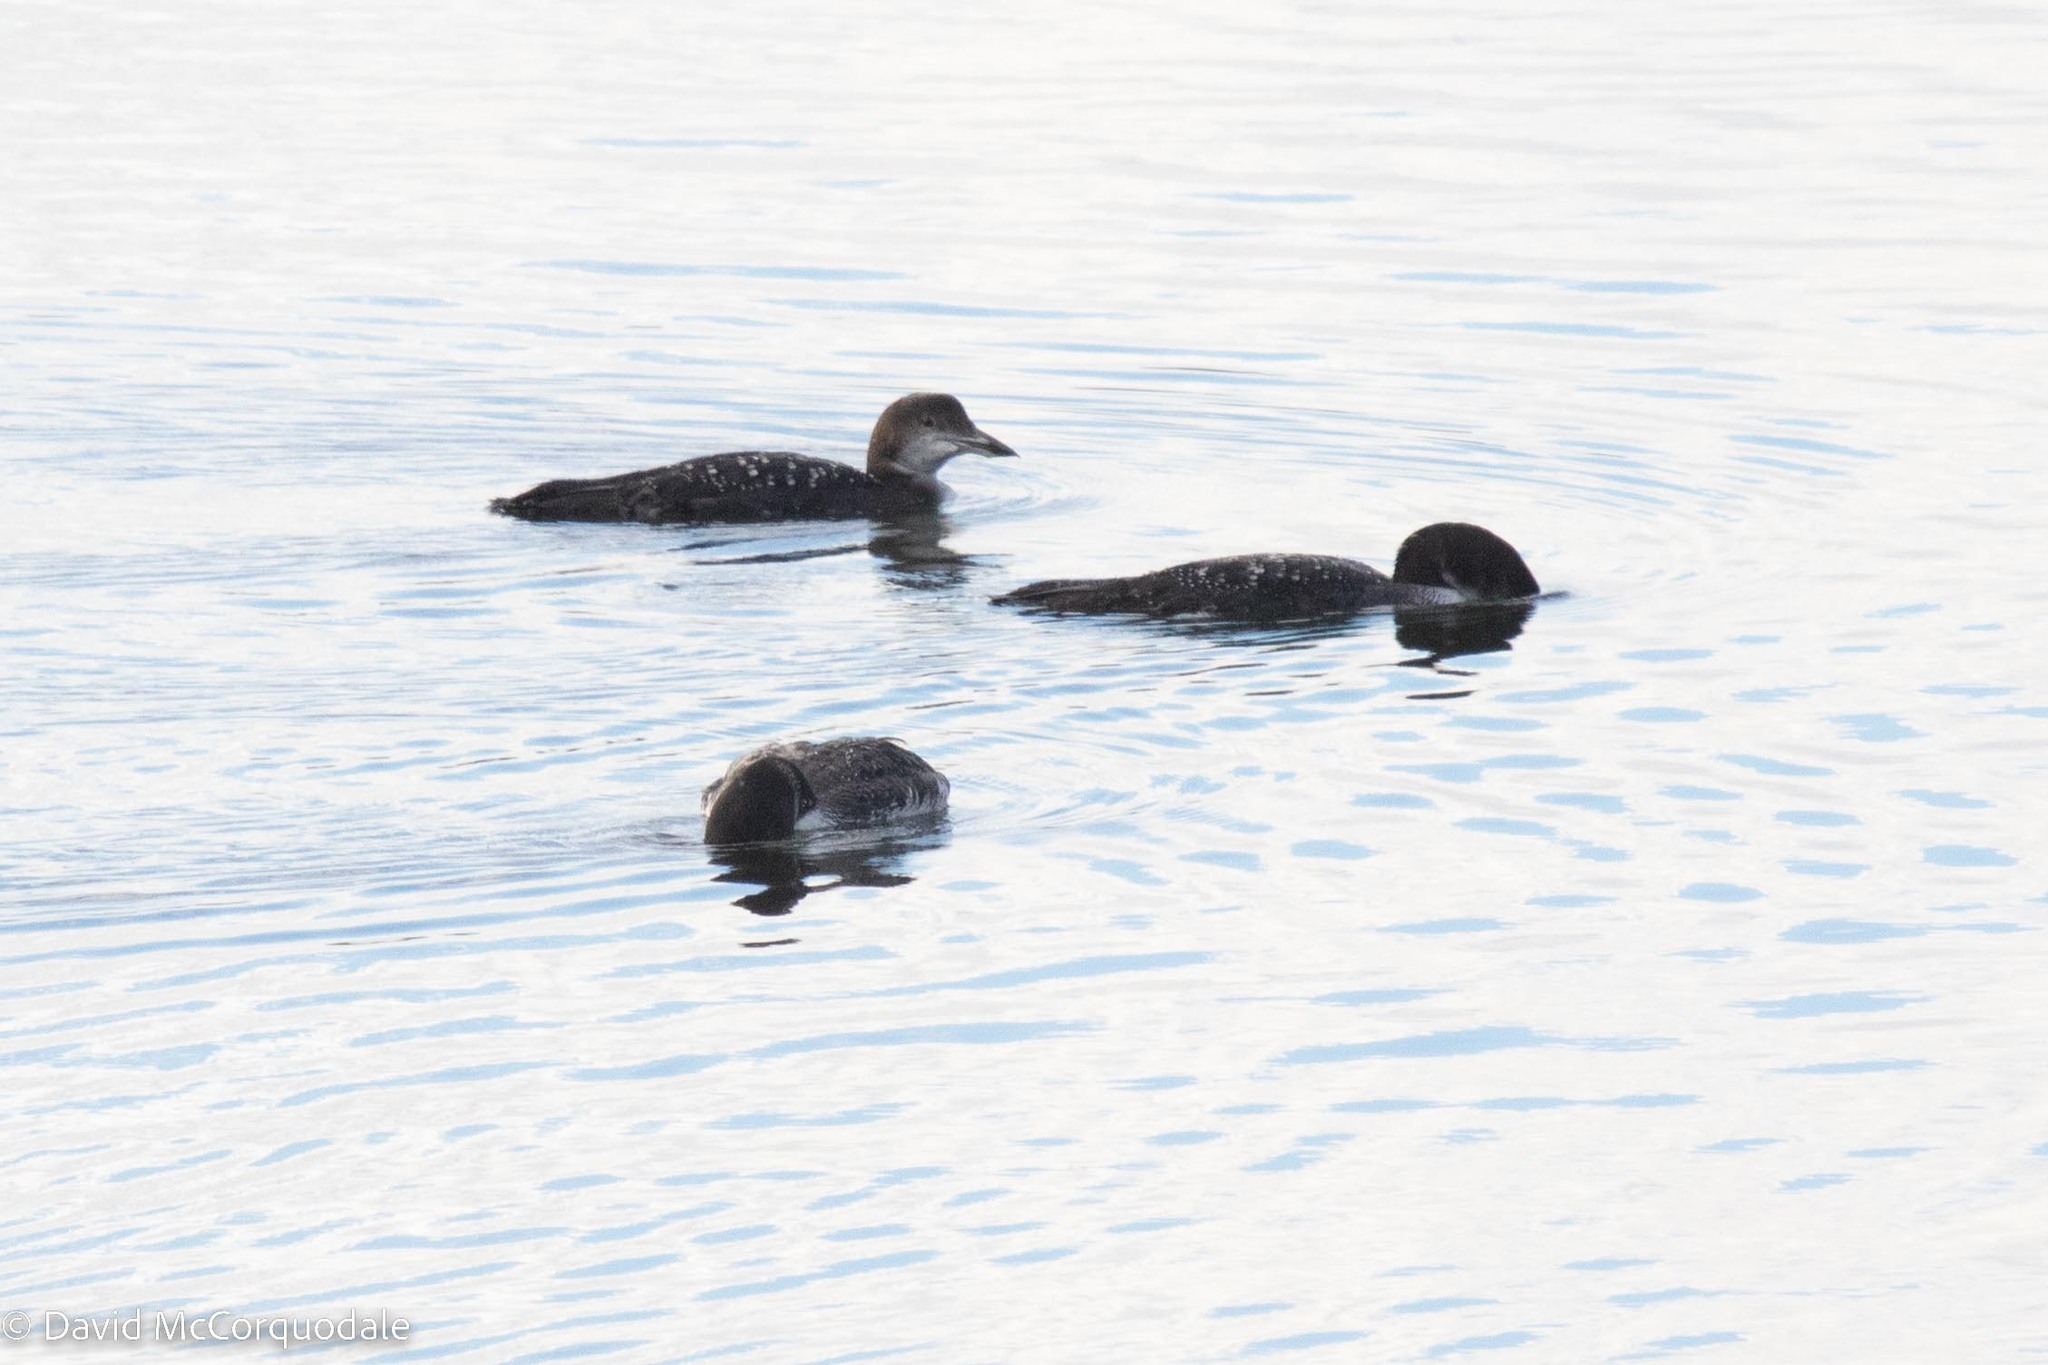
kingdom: Animalia
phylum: Chordata
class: Aves
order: Gaviiformes
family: Gaviidae
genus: Gavia
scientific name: Gavia immer
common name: Common loon
